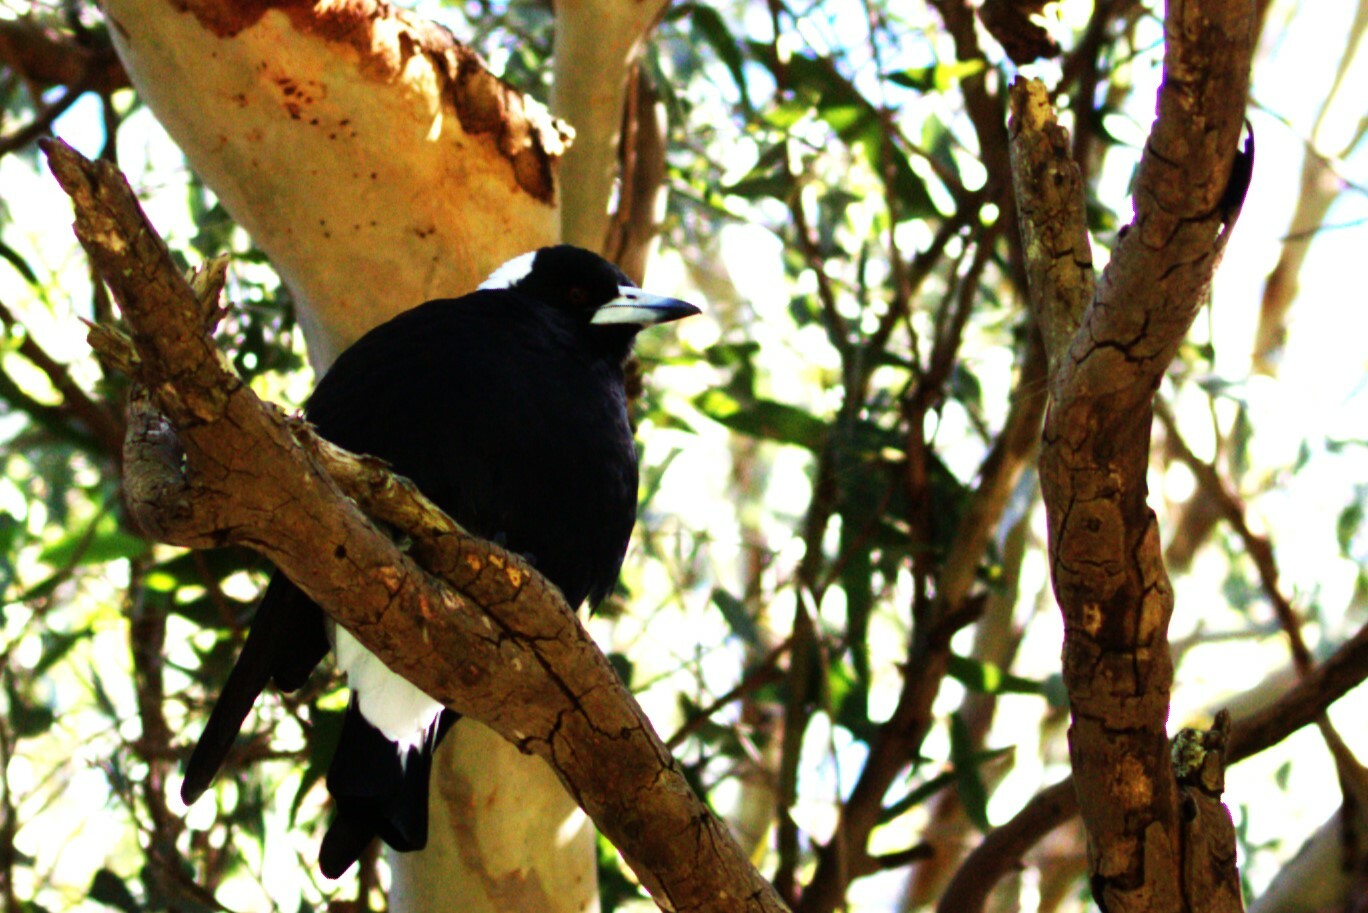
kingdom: Animalia
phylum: Chordata
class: Aves
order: Passeriformes
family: Cracticidae
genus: Gymnorhina
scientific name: Gymnorhina tibicen
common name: Australian magpie
